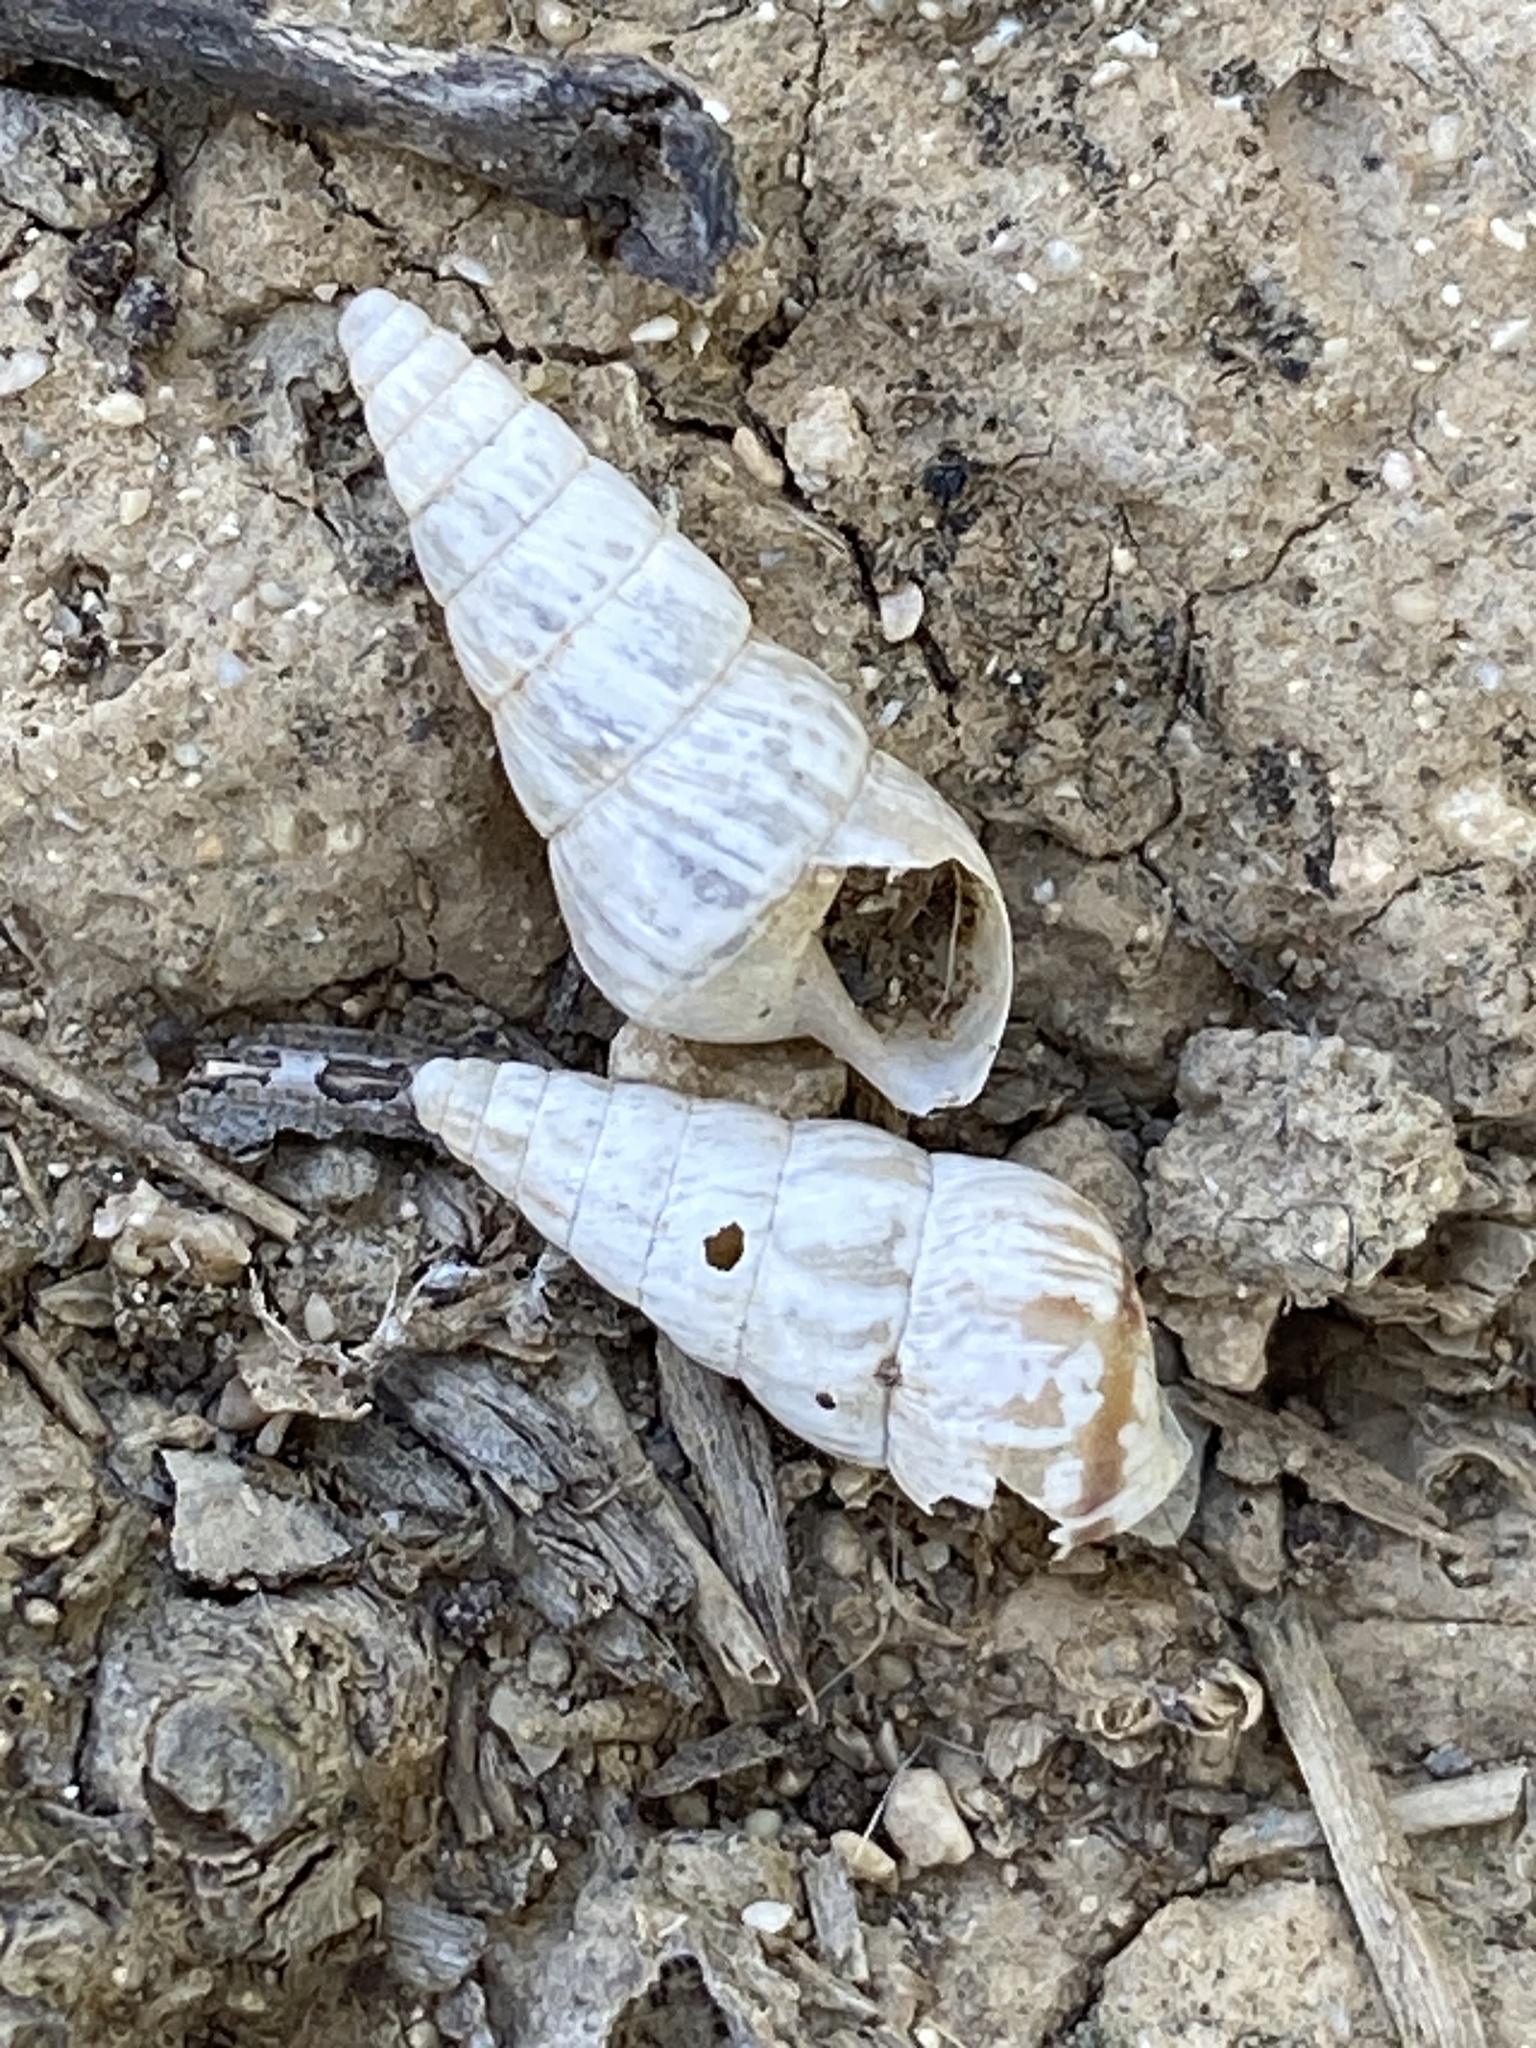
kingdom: Animalia
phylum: Mollusca
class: Gastropoda
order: Stylommatophora
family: Geomitridae
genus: Cochlicella
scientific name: Cochlicella acuta
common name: Pointed snail
